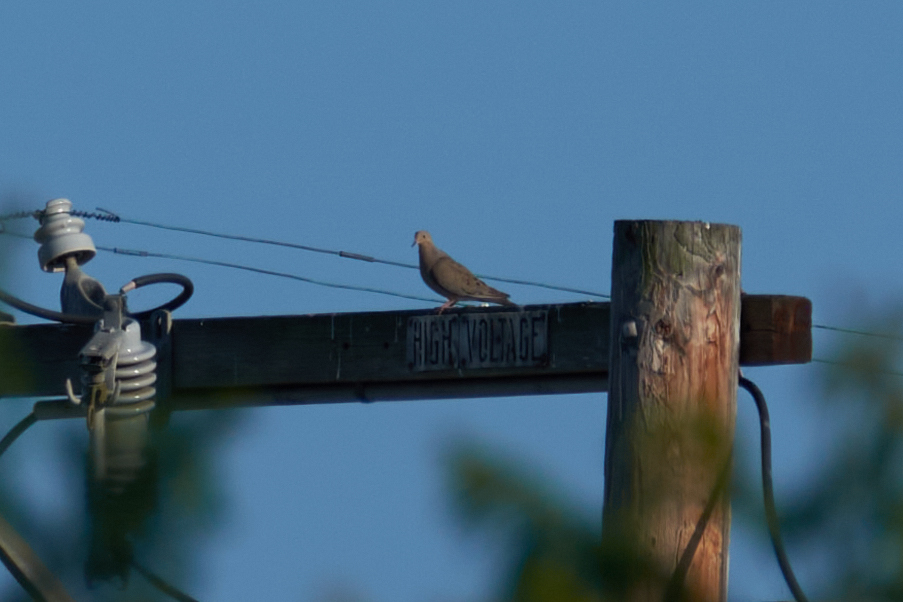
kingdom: Animalia
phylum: Chordata
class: Aves
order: Columbiformes
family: Columbidae
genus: Zenaida
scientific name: Zenaida macroura
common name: Mourning dove
